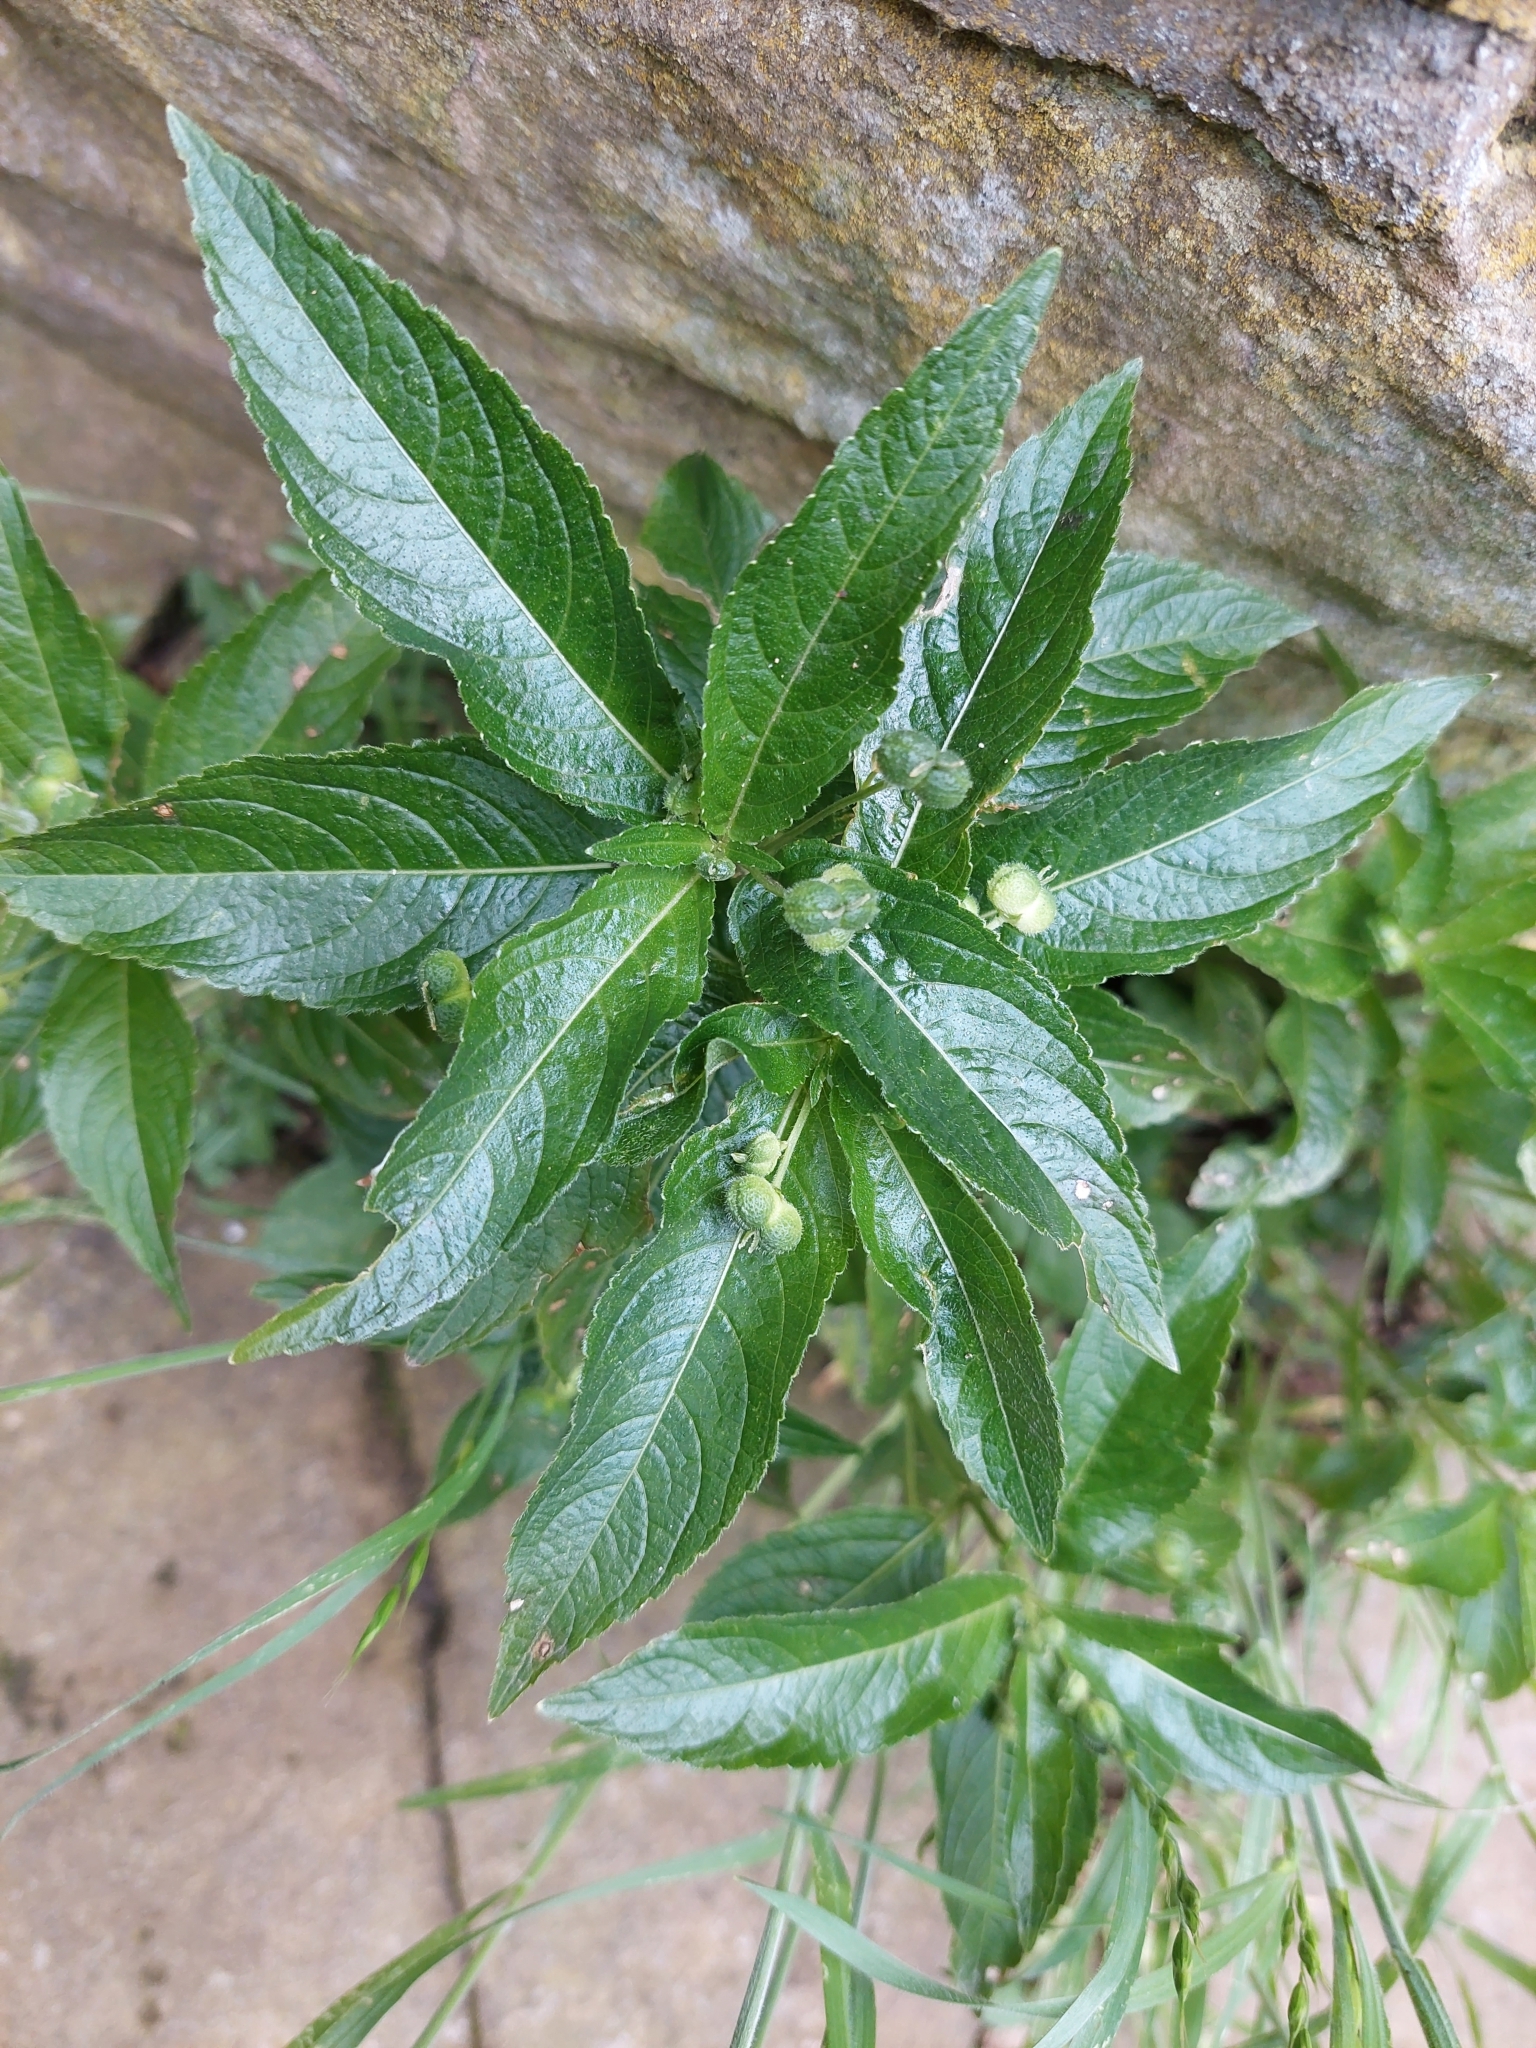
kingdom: Plantae
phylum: Tracheophyta
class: Magnoliopsida
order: Malpighiales
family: Euphorbiaceae
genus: Mercurialis
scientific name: Mercurialis perennis
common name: Dog mercury
